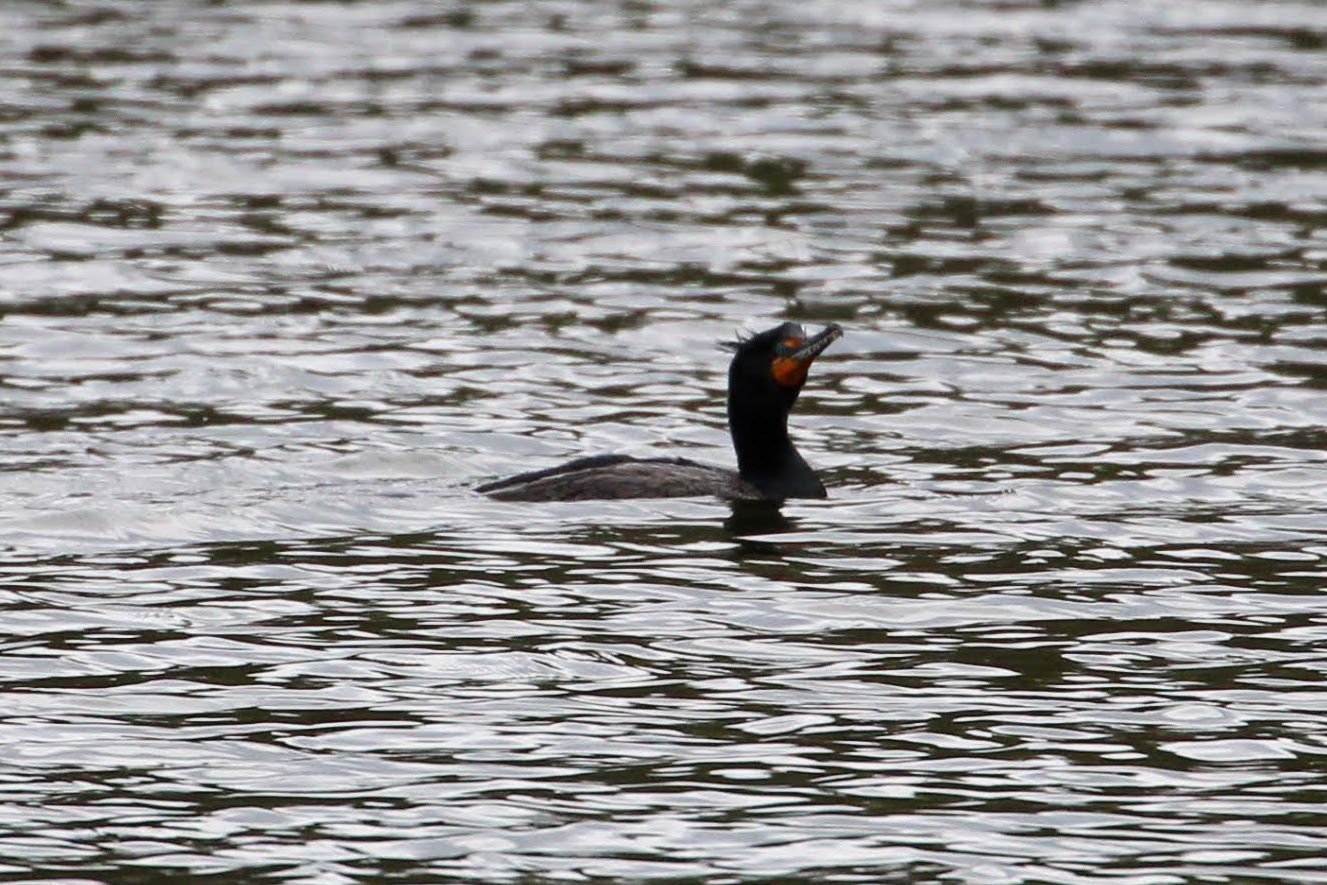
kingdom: Animalia
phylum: Chordata
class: Aves
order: Suliformes
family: Phalacrocoracidae
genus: Phalacrocorax
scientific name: Phalacrocorax auritus
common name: Double-crested cormorant
